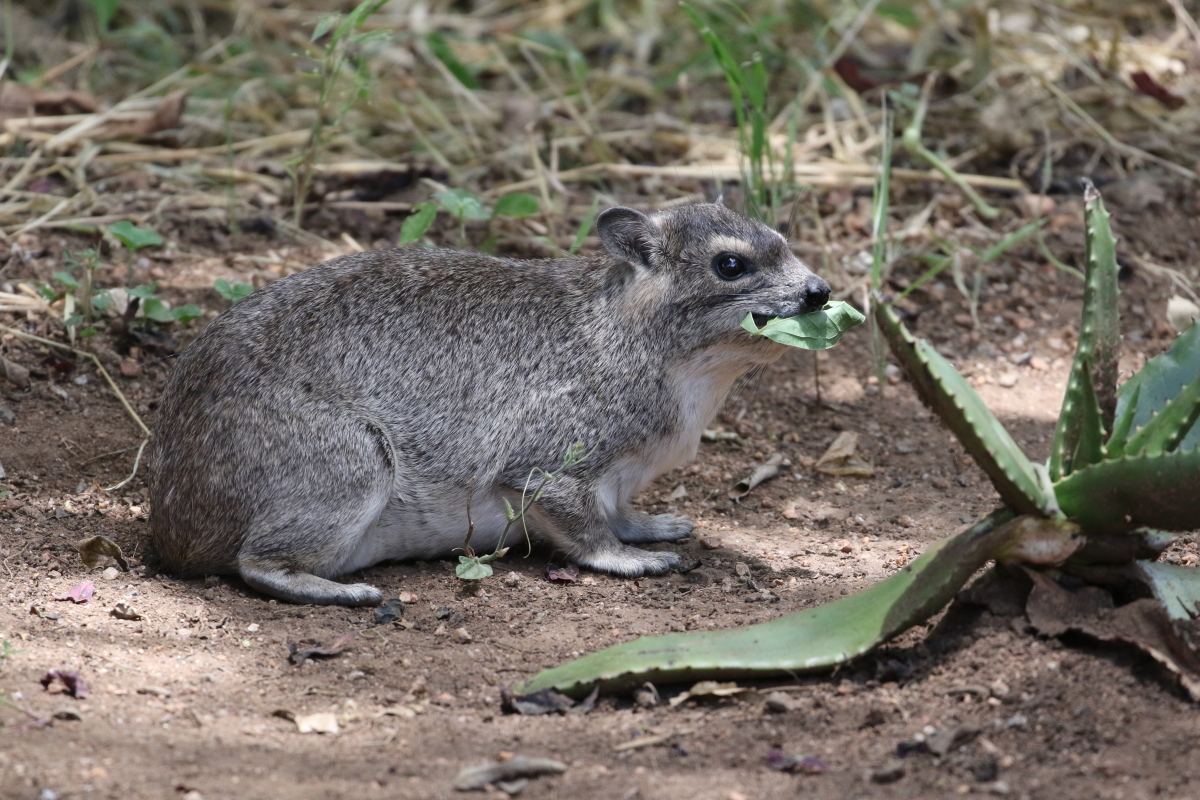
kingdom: Animalia
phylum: Chordata
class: Mammalia
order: Hyracoidea
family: Procaviidae
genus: Heterohyrax
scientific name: Heterohyrax brucei
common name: Bush hyrax
